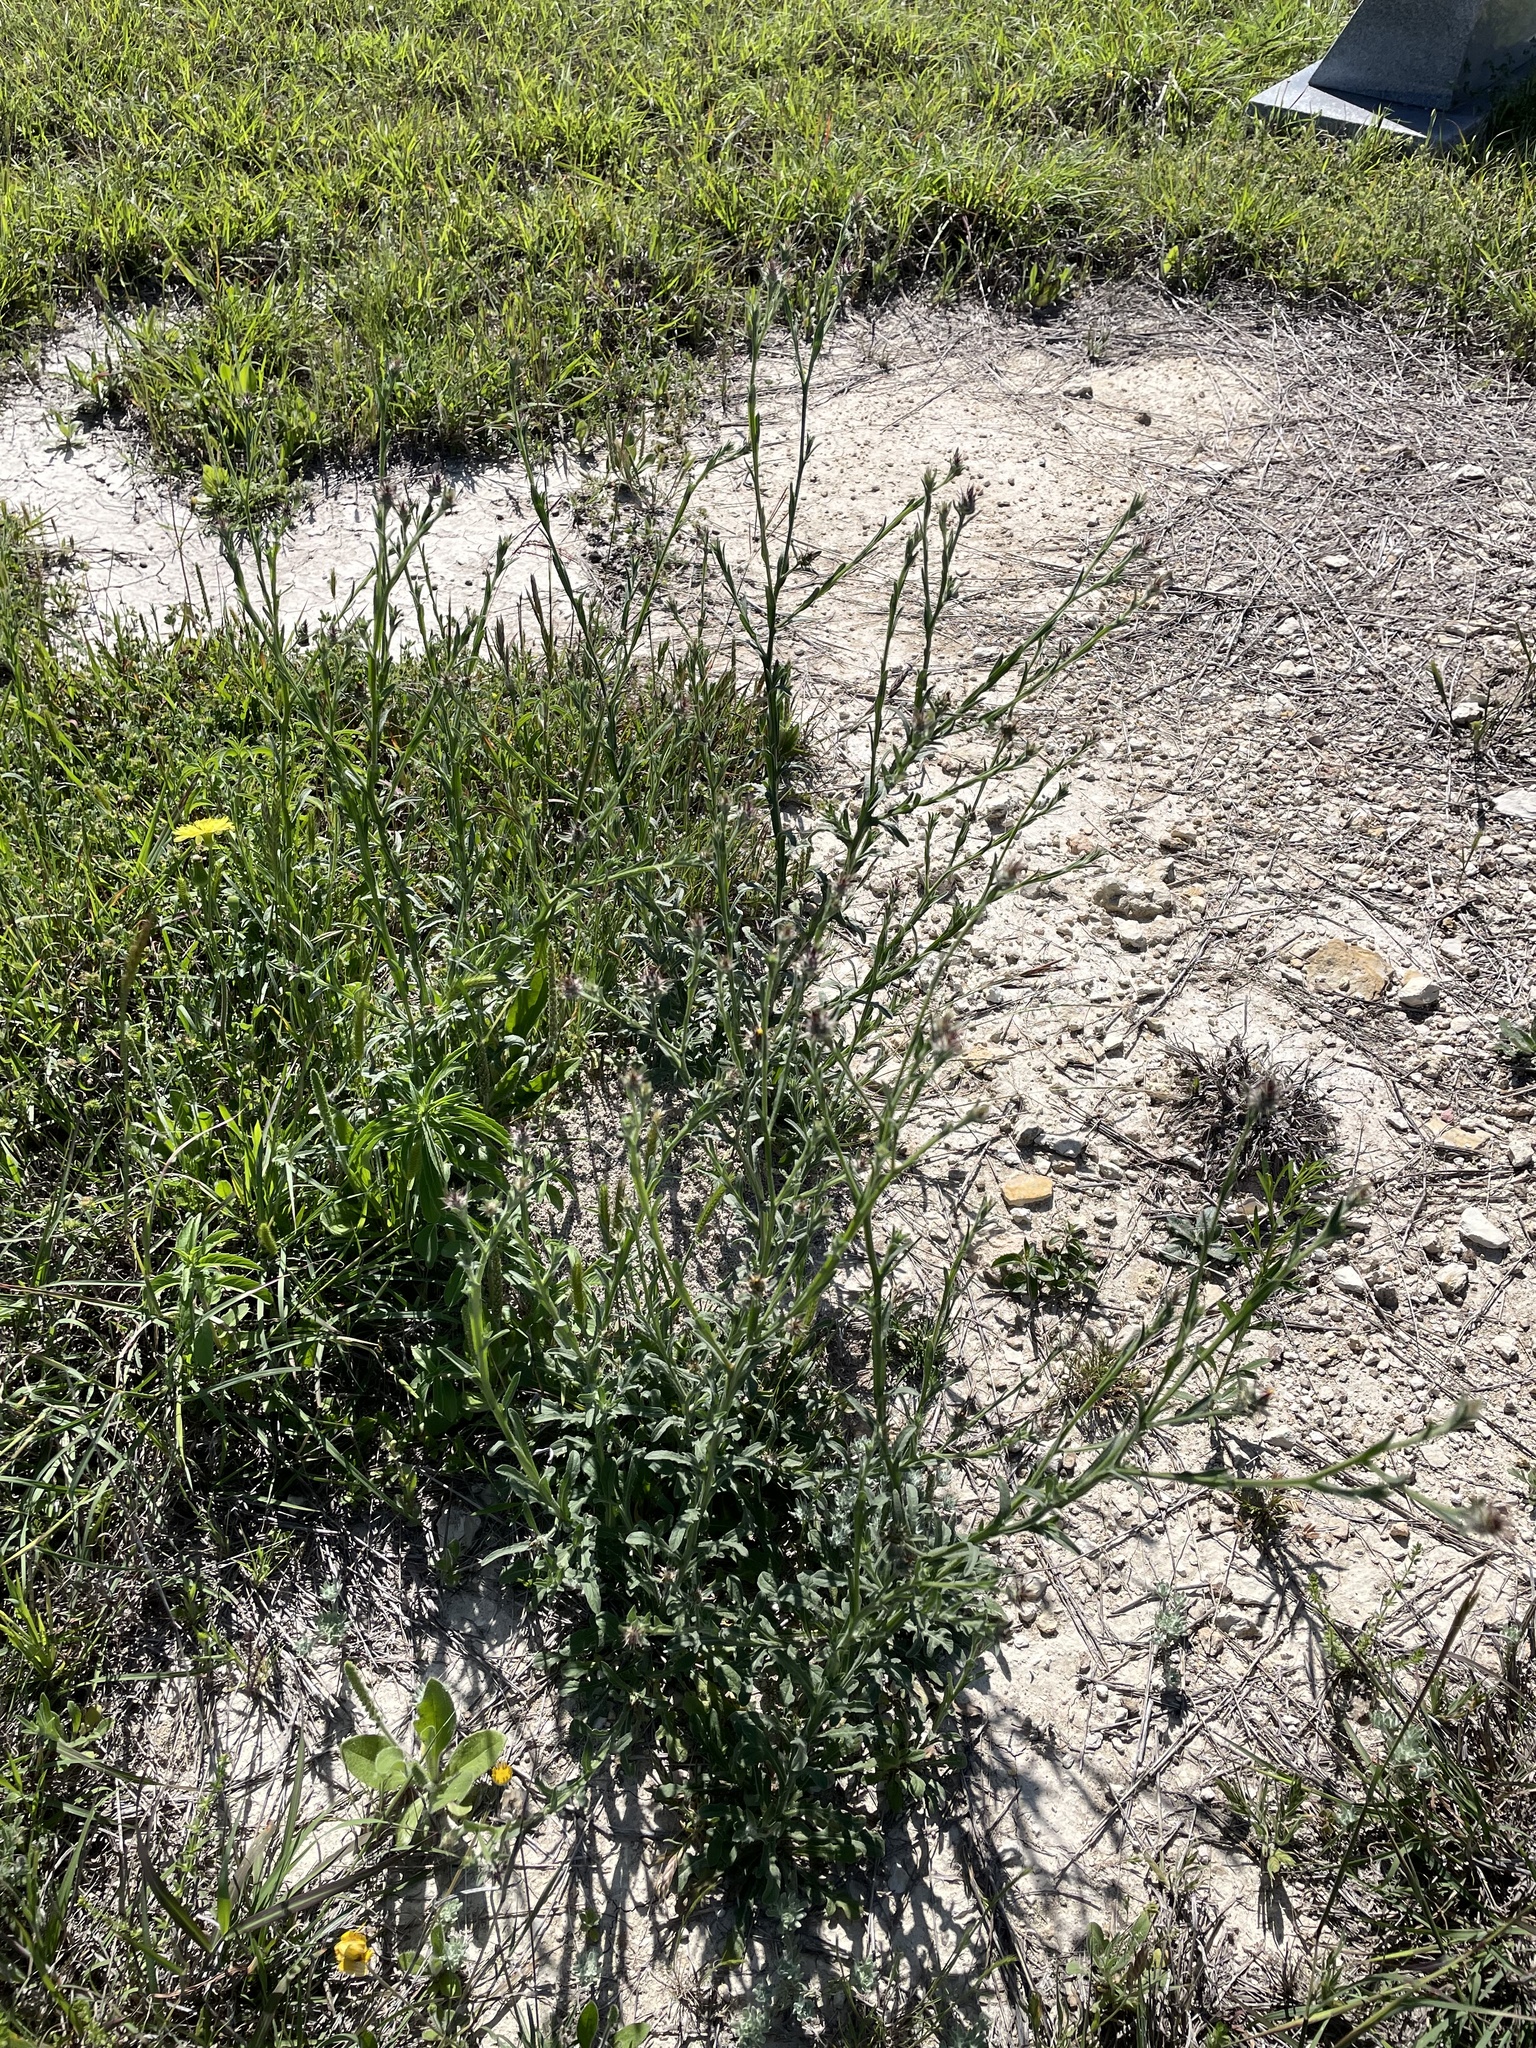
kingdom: Plantae
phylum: Tracheophyta
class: Magnoliopsida
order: Asterales
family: Asteraceae
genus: Centaurea
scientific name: Centaurea melitensis
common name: Maltese star-thistle
